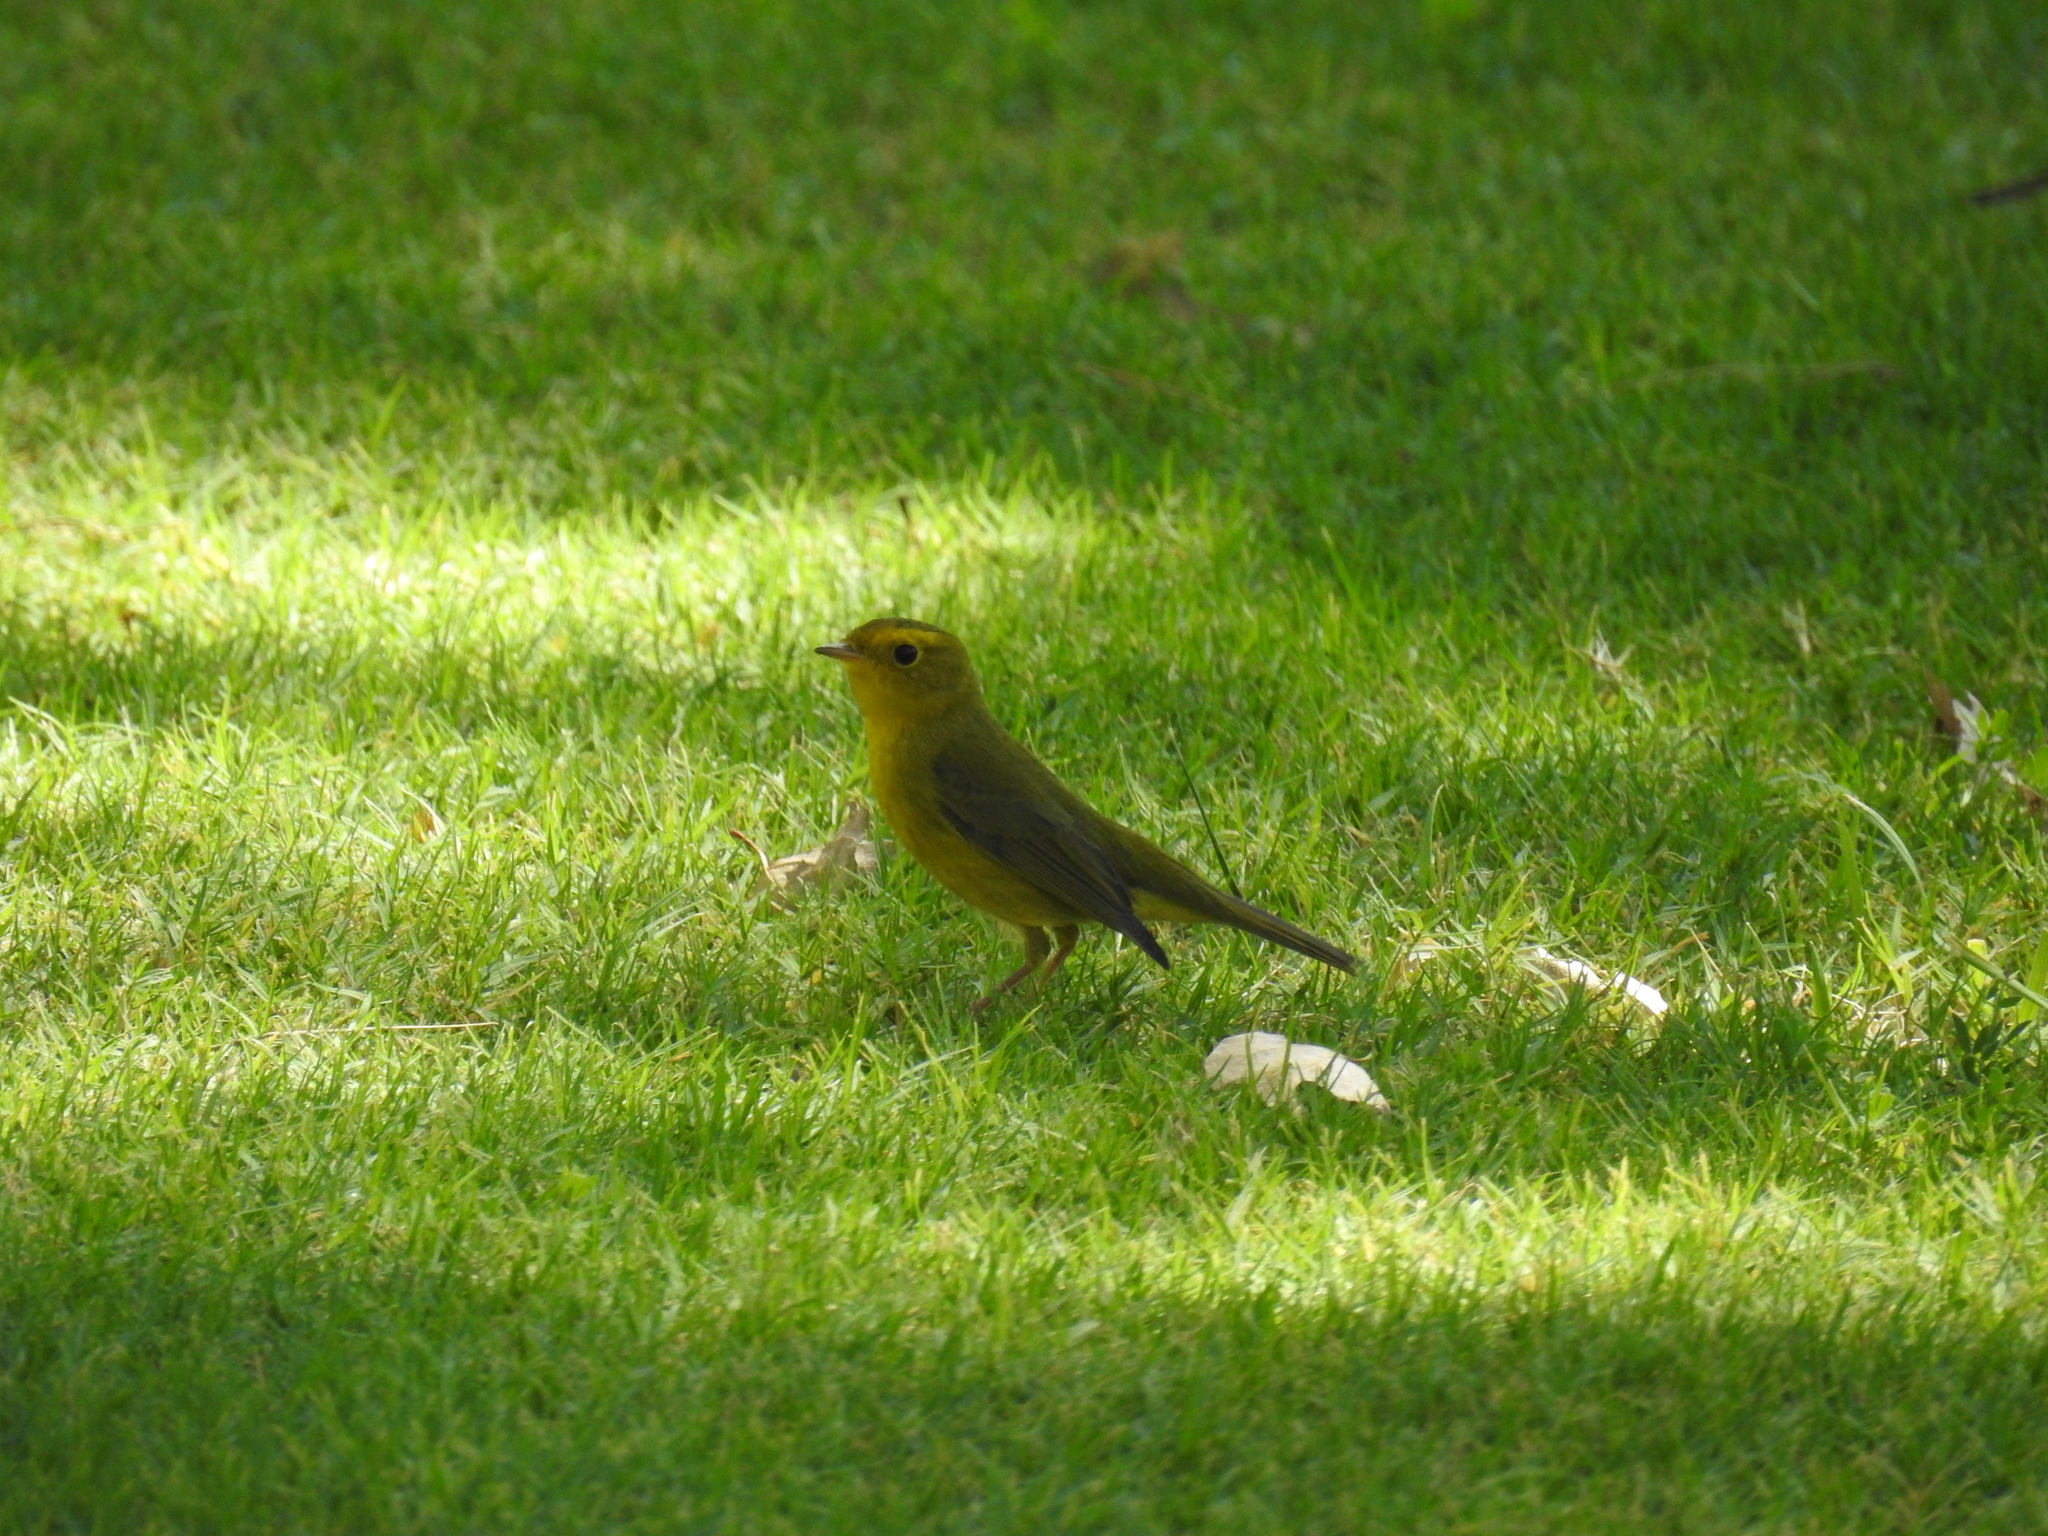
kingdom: Animalia
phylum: Chordata
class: Aves
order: Passeriformes
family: Parulidae
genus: Cardellina
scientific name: Cardellina pusilla
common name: Wilson's warbler
